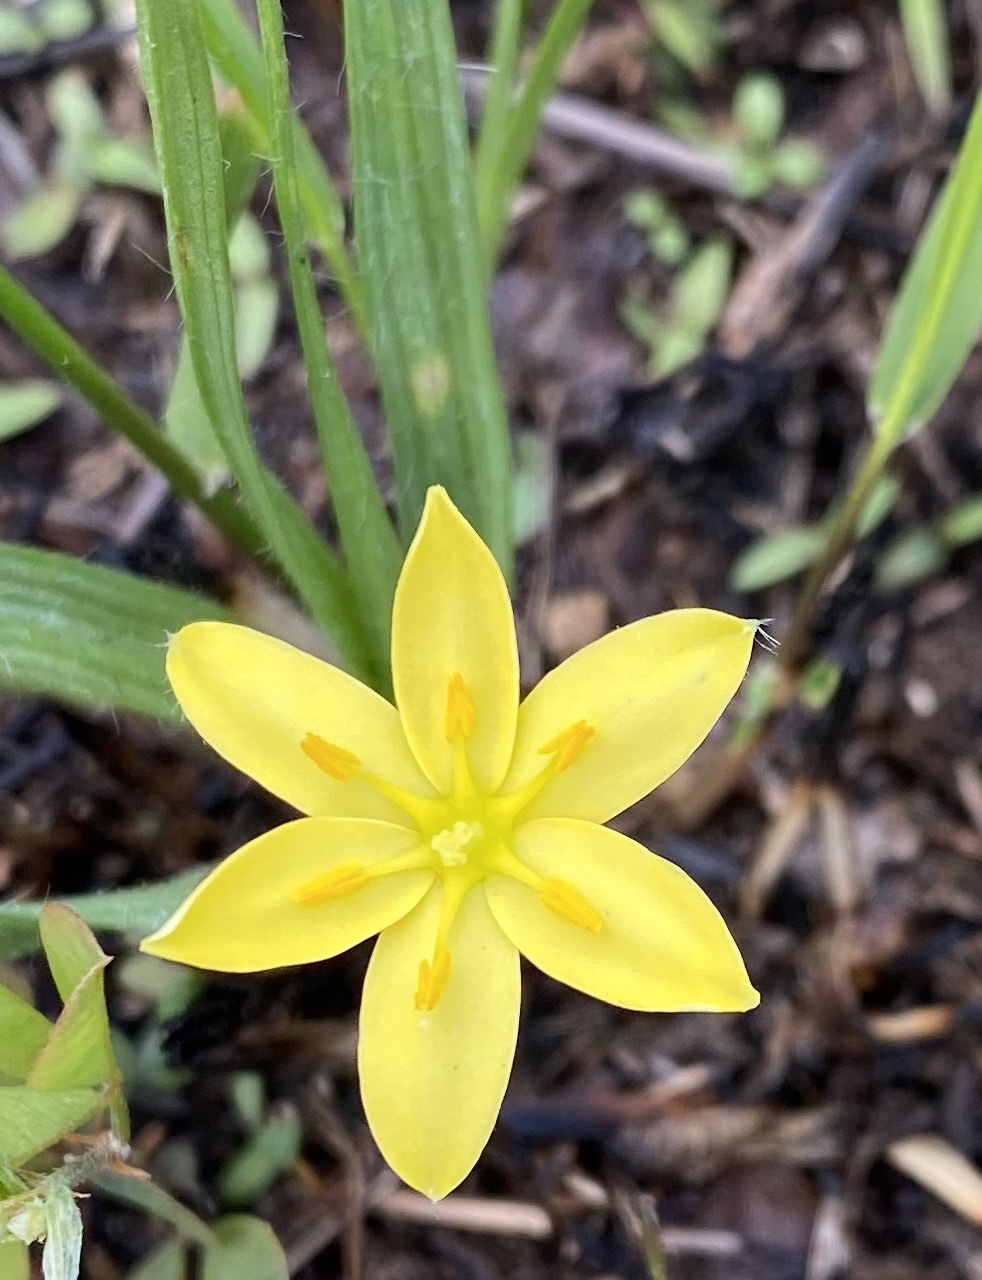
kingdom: Plantae
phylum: Tracheophyta
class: Liliopsida
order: Asparagales
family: Hypoxidaceae
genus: Hypoxis
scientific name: Hypoxis hirsuta
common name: Common goldstar
